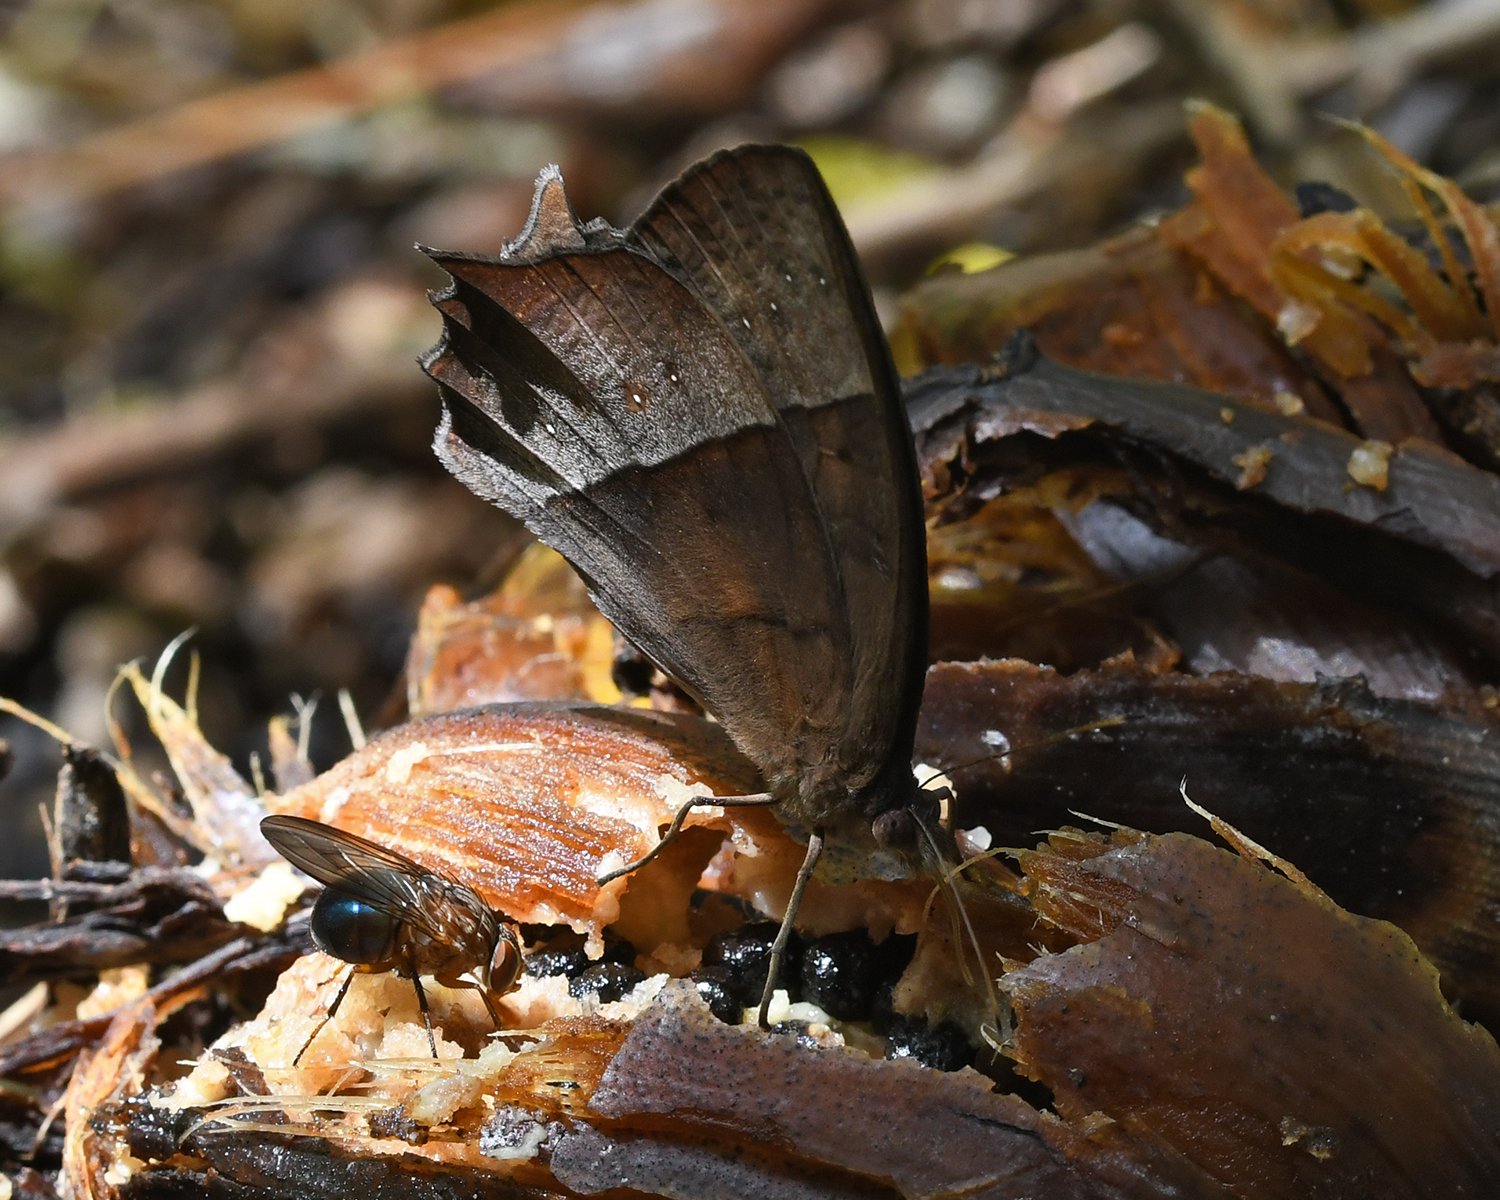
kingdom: Animalia
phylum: Arthropoda
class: Insecta
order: Lepidoptera
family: Nymphalidae
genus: Taygetis
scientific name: Taygetis virgilia
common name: Stub-tailed satyr
